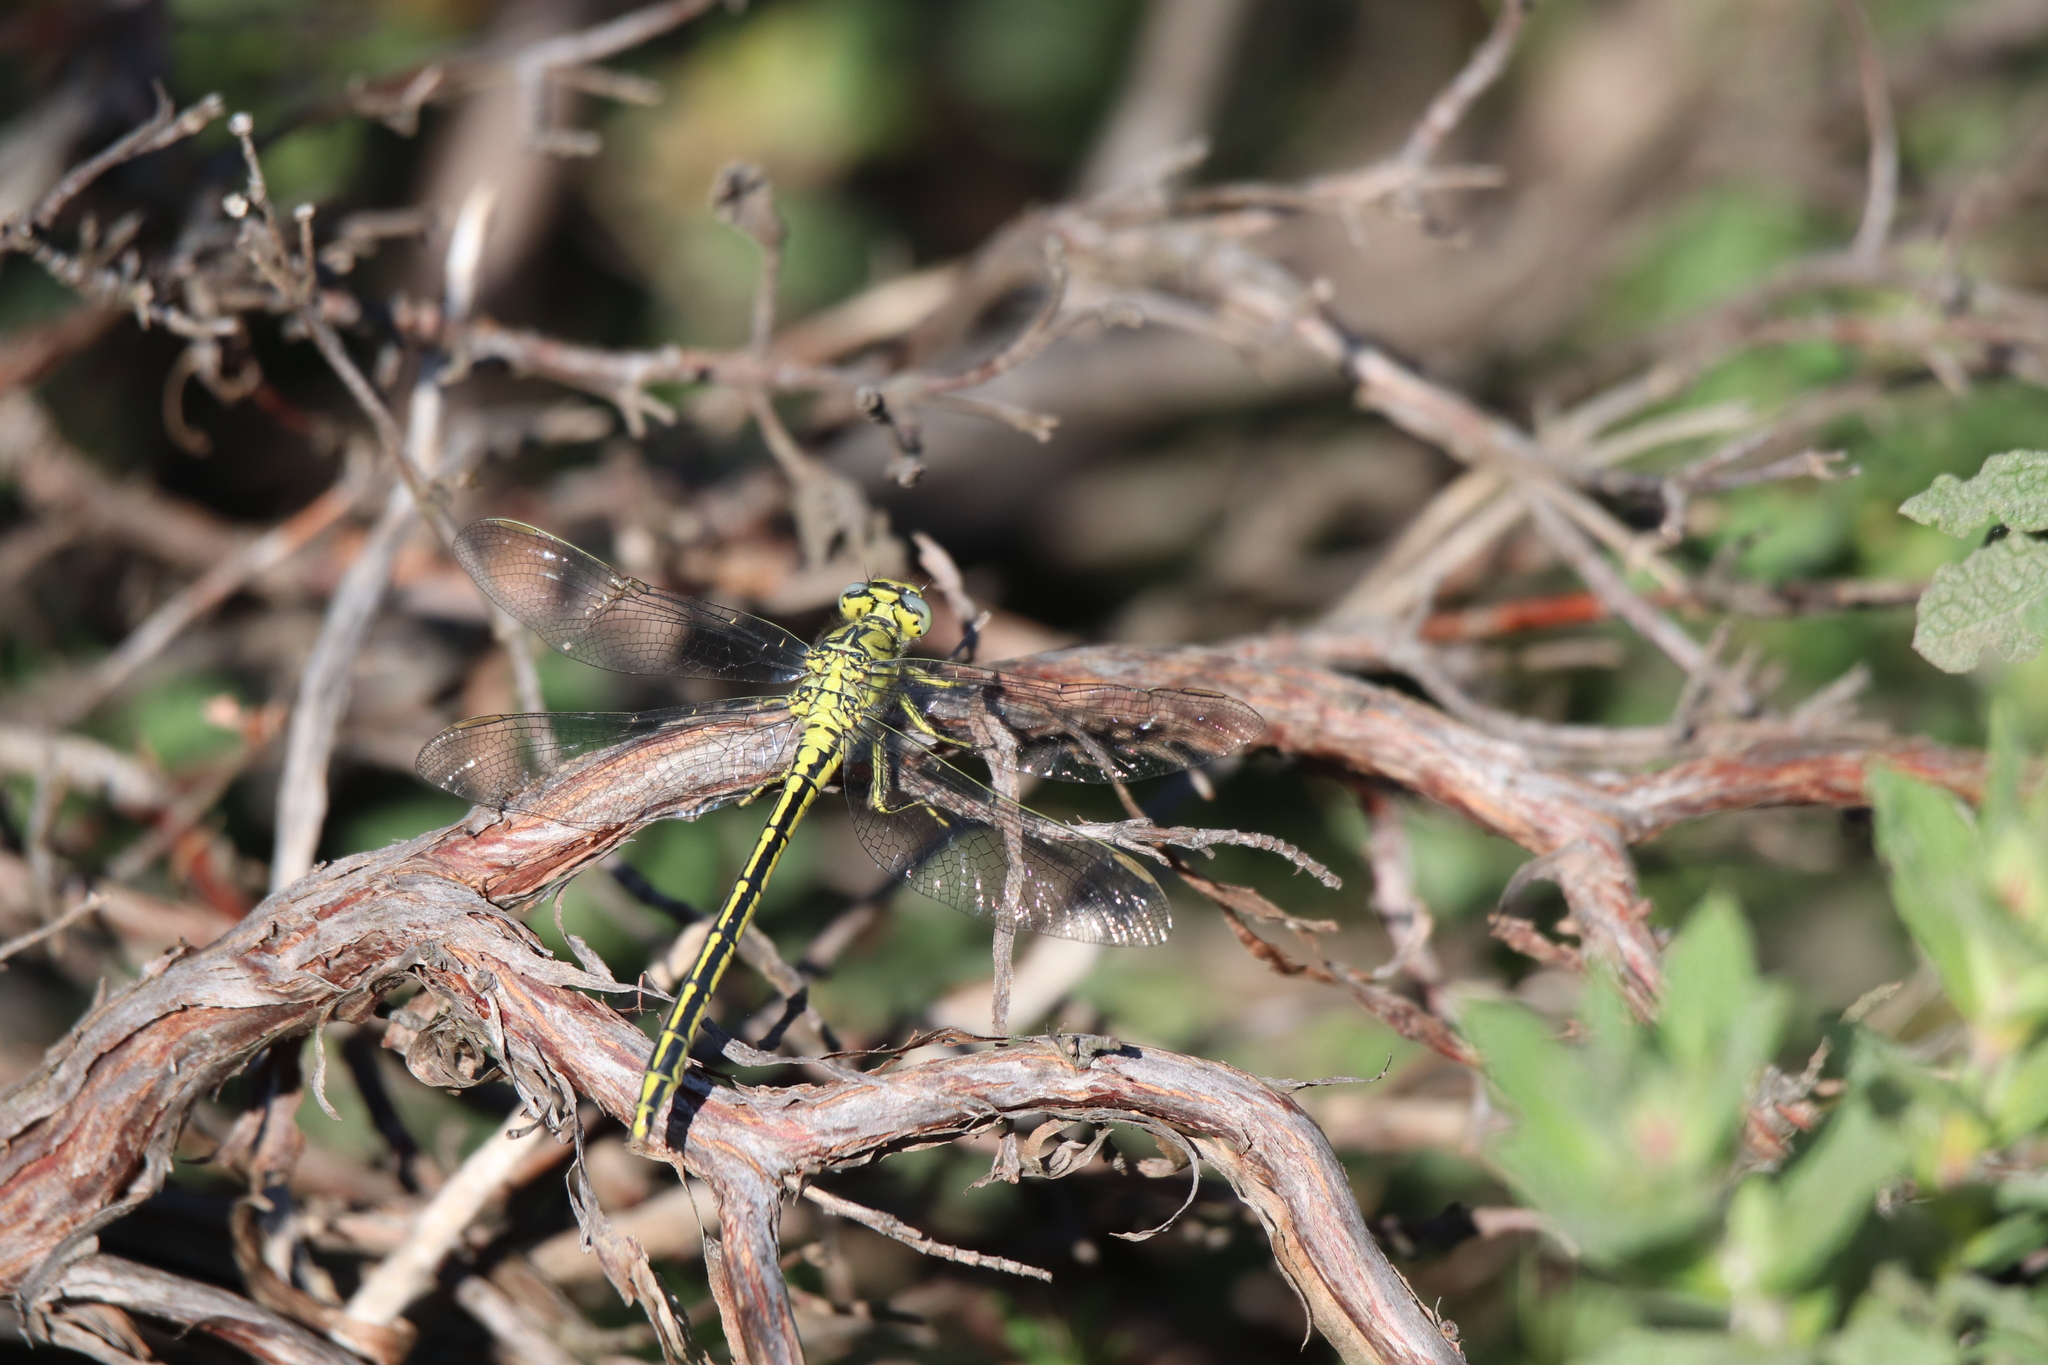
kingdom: Animalia
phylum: Arthropoda
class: Insecta
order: Odonata
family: Gomphidae
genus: Gomphus
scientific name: Gomphus pulchellus
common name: Western clubtail
